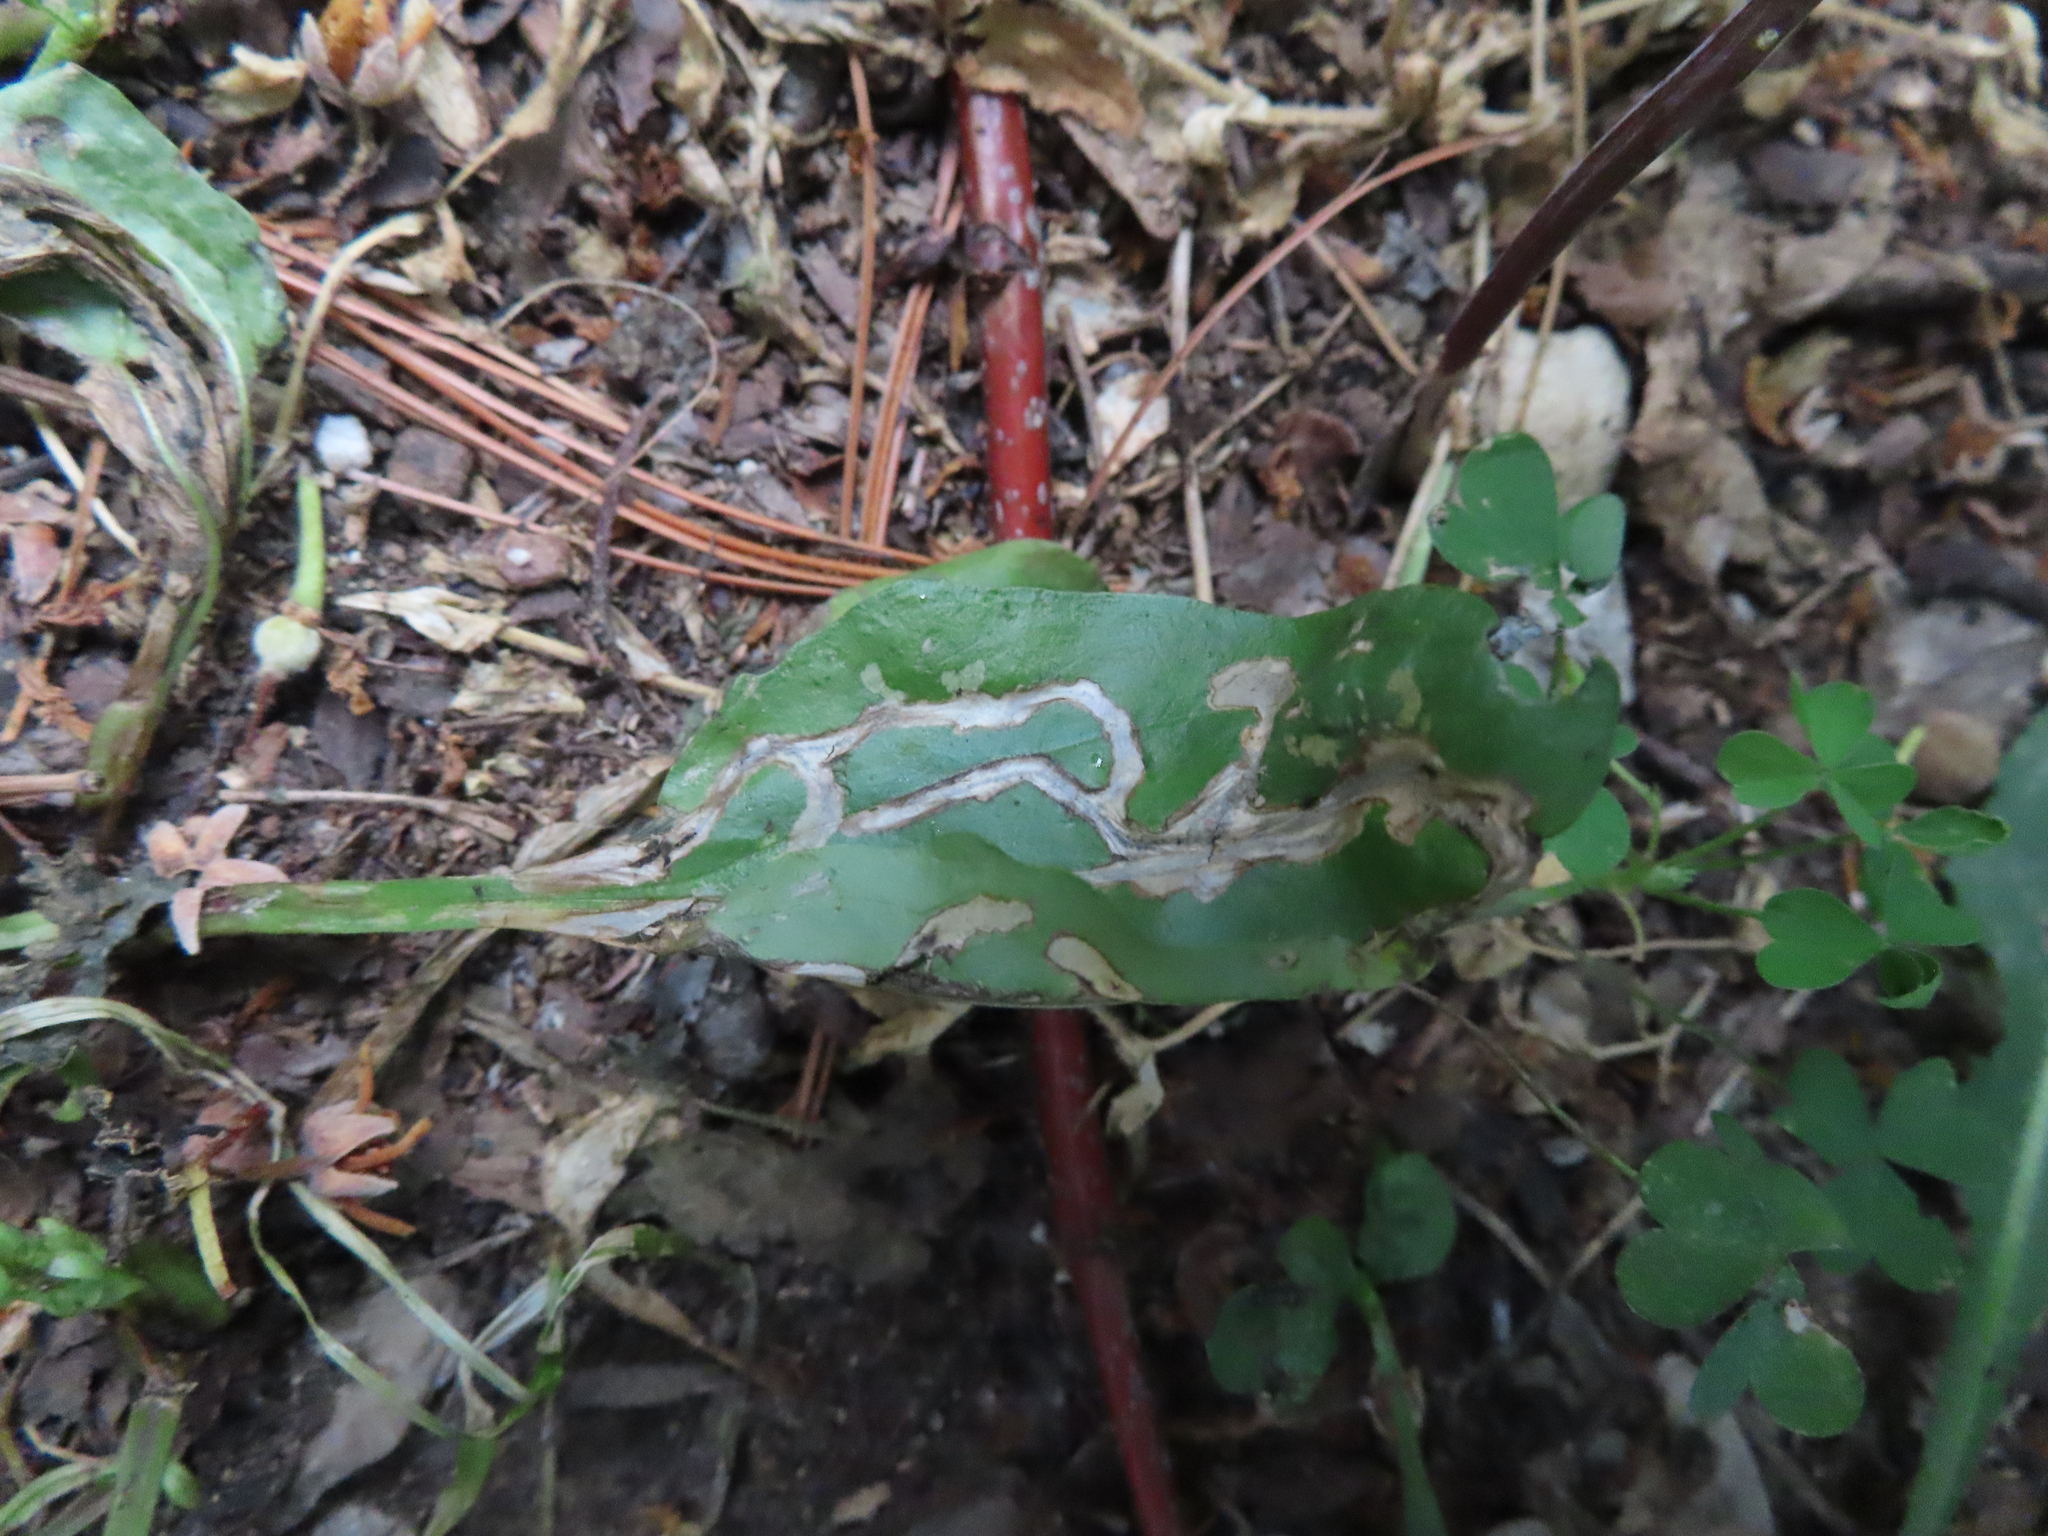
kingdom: Animalia
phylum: Arthropoda
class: Insecta
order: Coleoptera
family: Chrysomelidae
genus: Dibolia
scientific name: Dibolia borealis
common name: Northern plantain flea beetle
